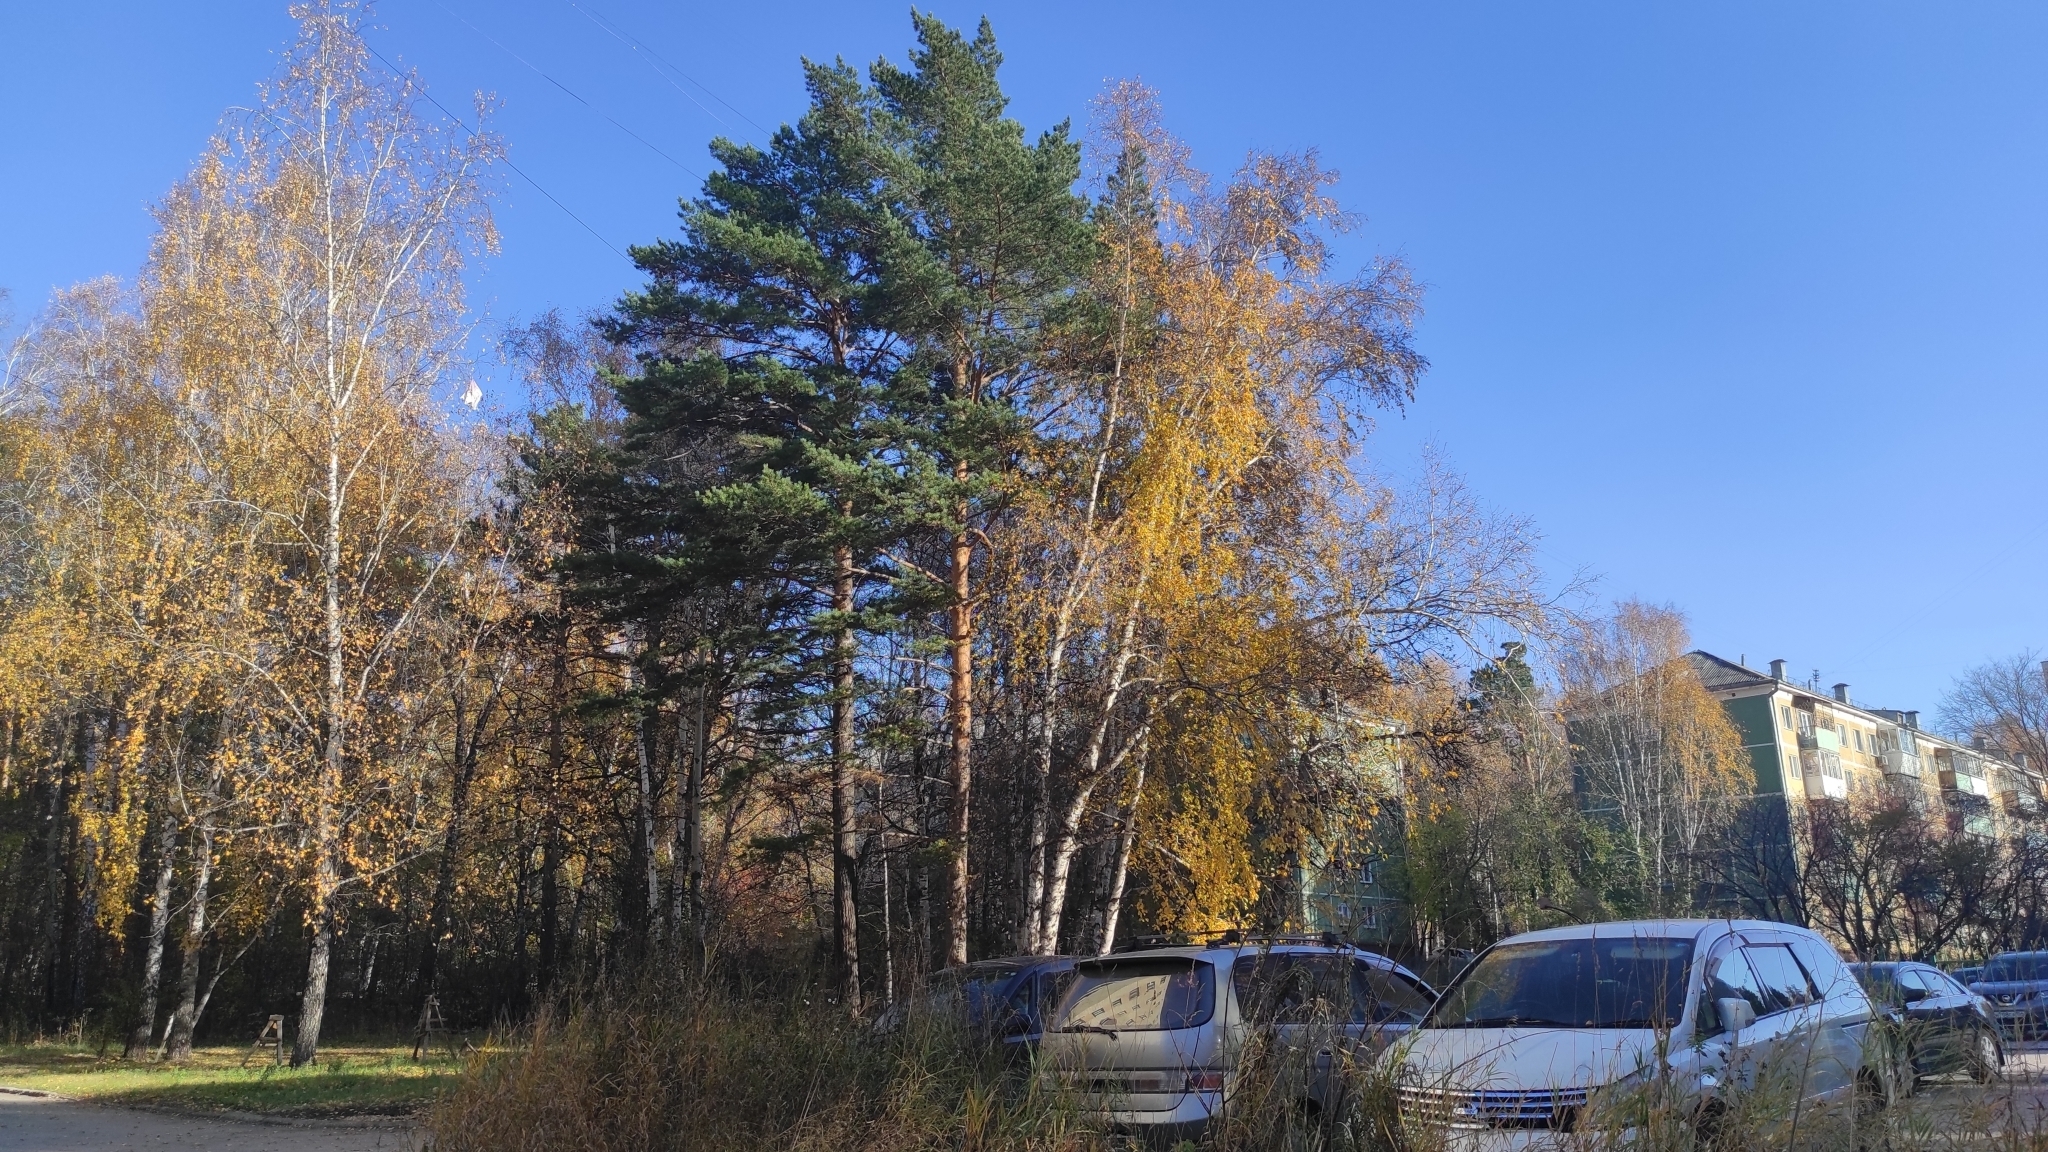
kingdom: Plantae
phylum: Tracheophyta
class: Magnoliopsida
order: Fagales
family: Betulaceae
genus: Betula
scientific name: Betula pendula
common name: Silver birch
